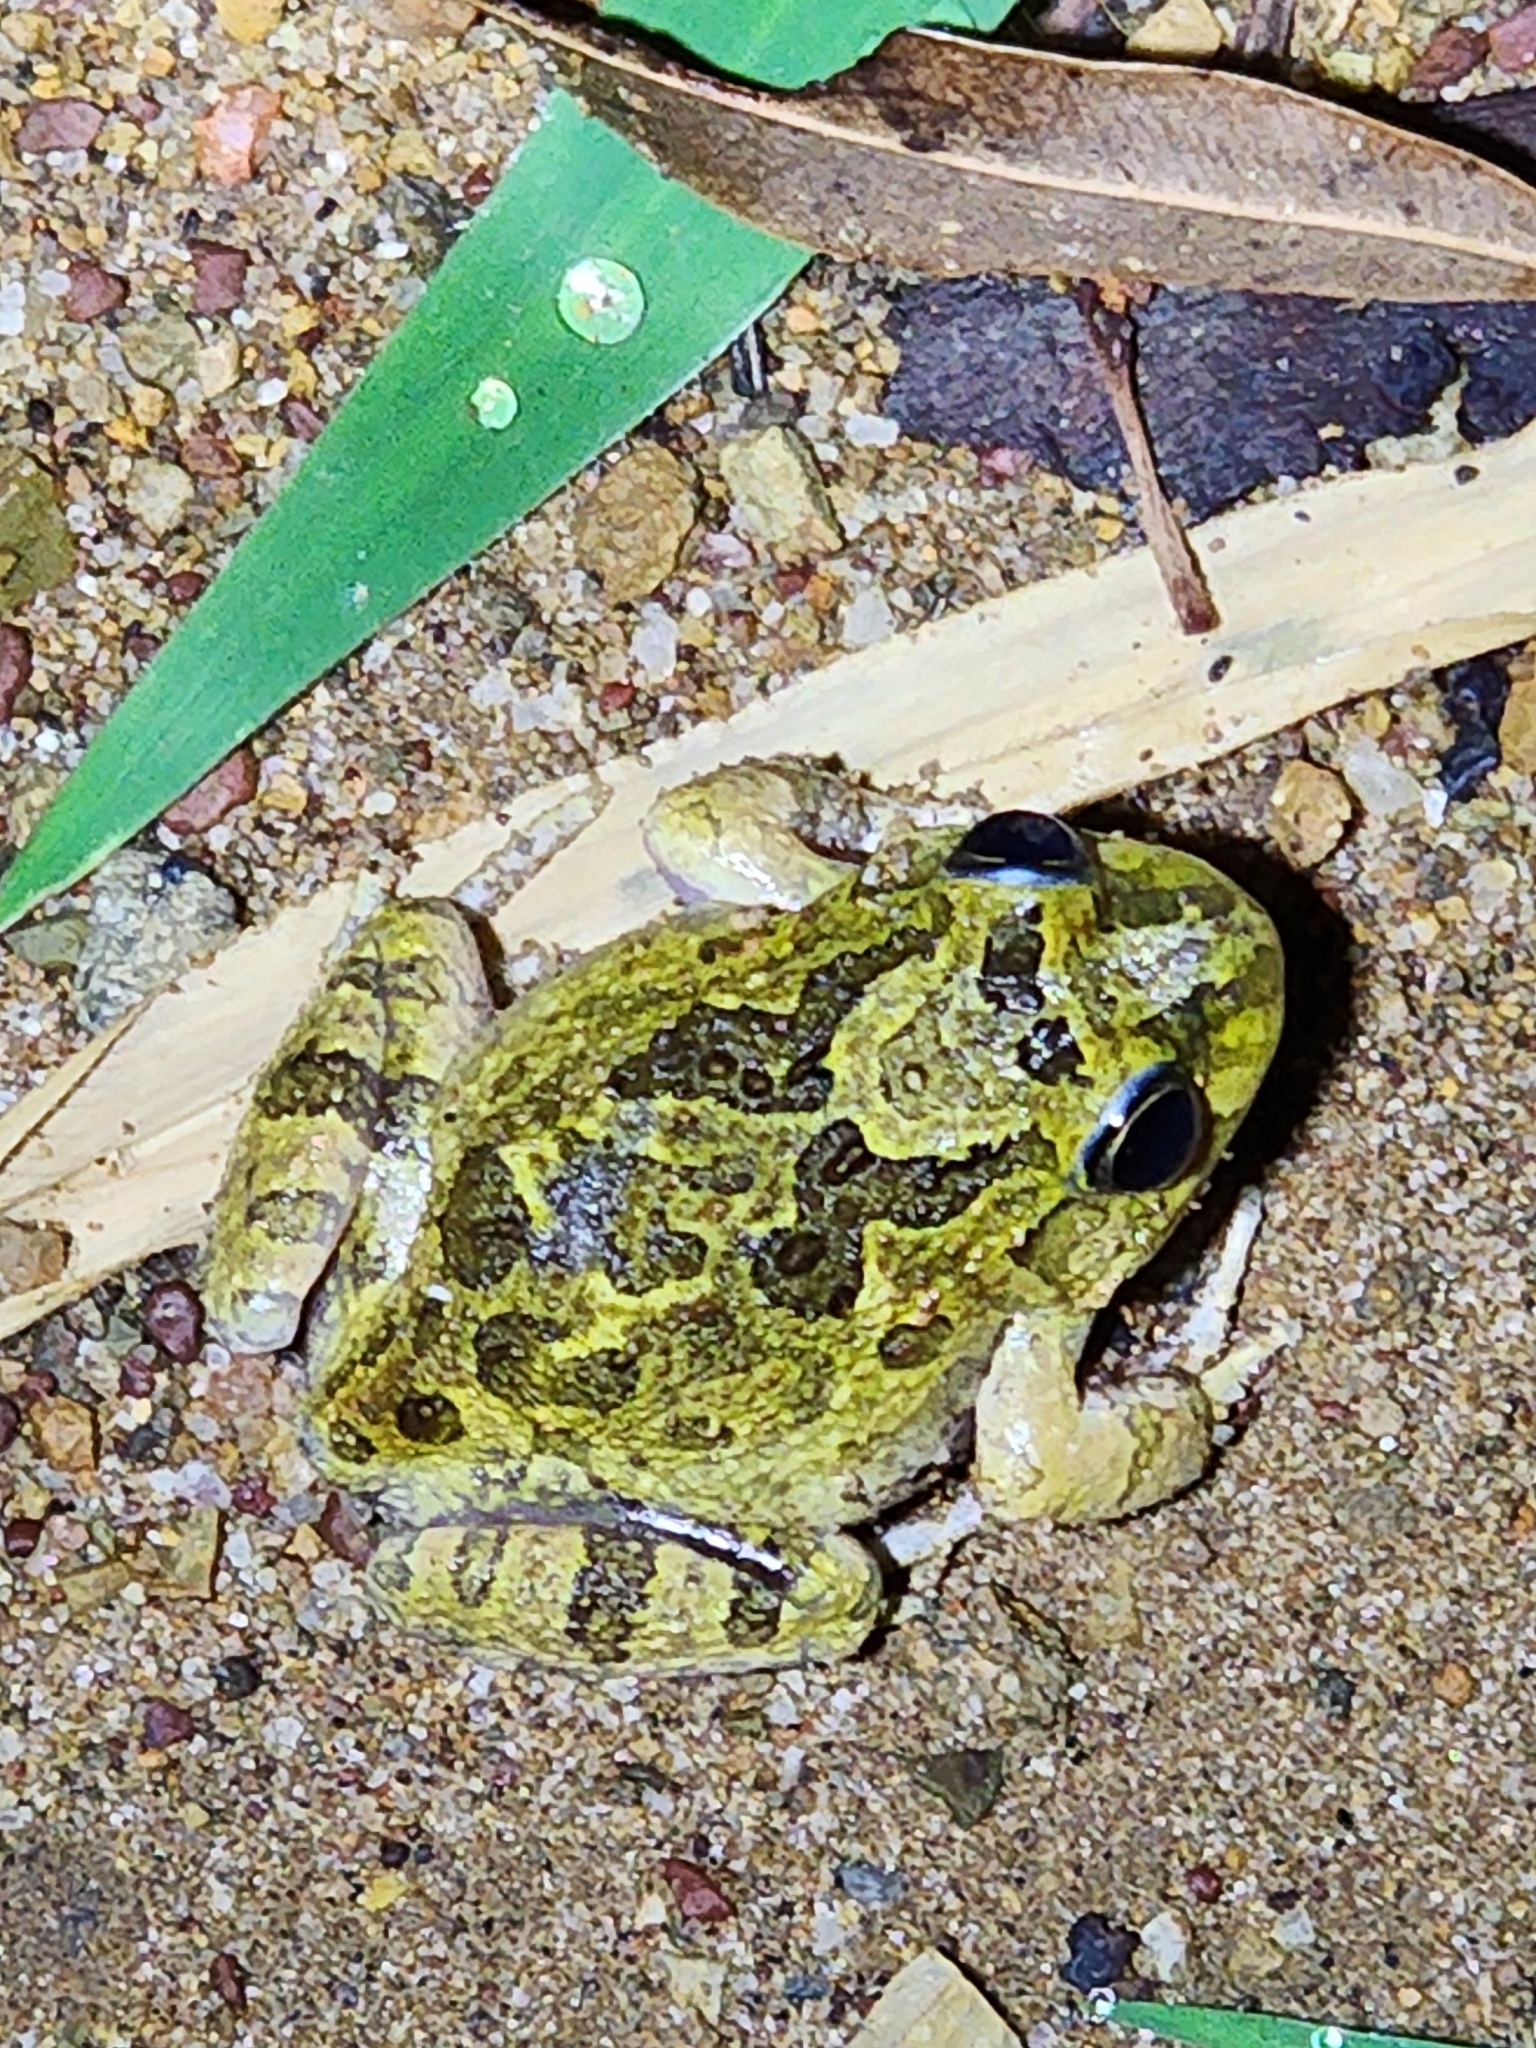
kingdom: Animalia
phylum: Chordata
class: Amphibia
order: Anura
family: Limnodynastidae
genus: Platyplectrum
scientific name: Platyplectrum ornatum
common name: Ornate burrowing frog
